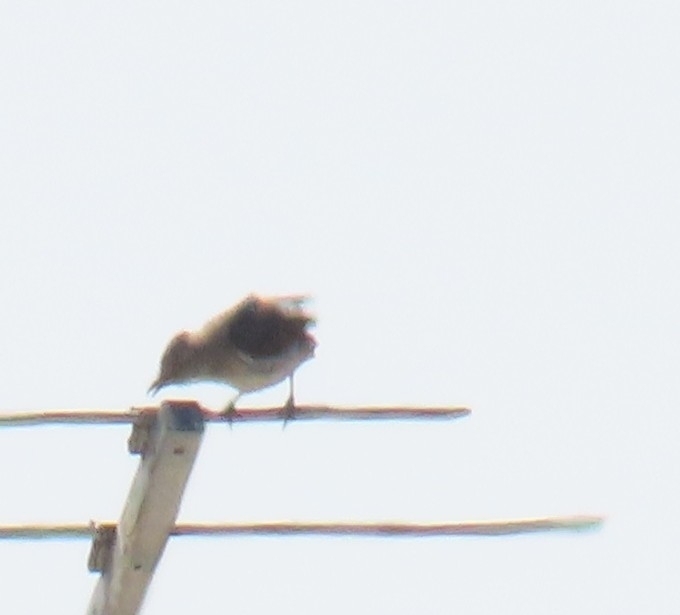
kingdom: Animalia
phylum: Chordata
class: Aves
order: Passeriformes
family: Mimidae
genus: Mimus
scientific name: Mimus polyglottos
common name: Northern mockingbird
